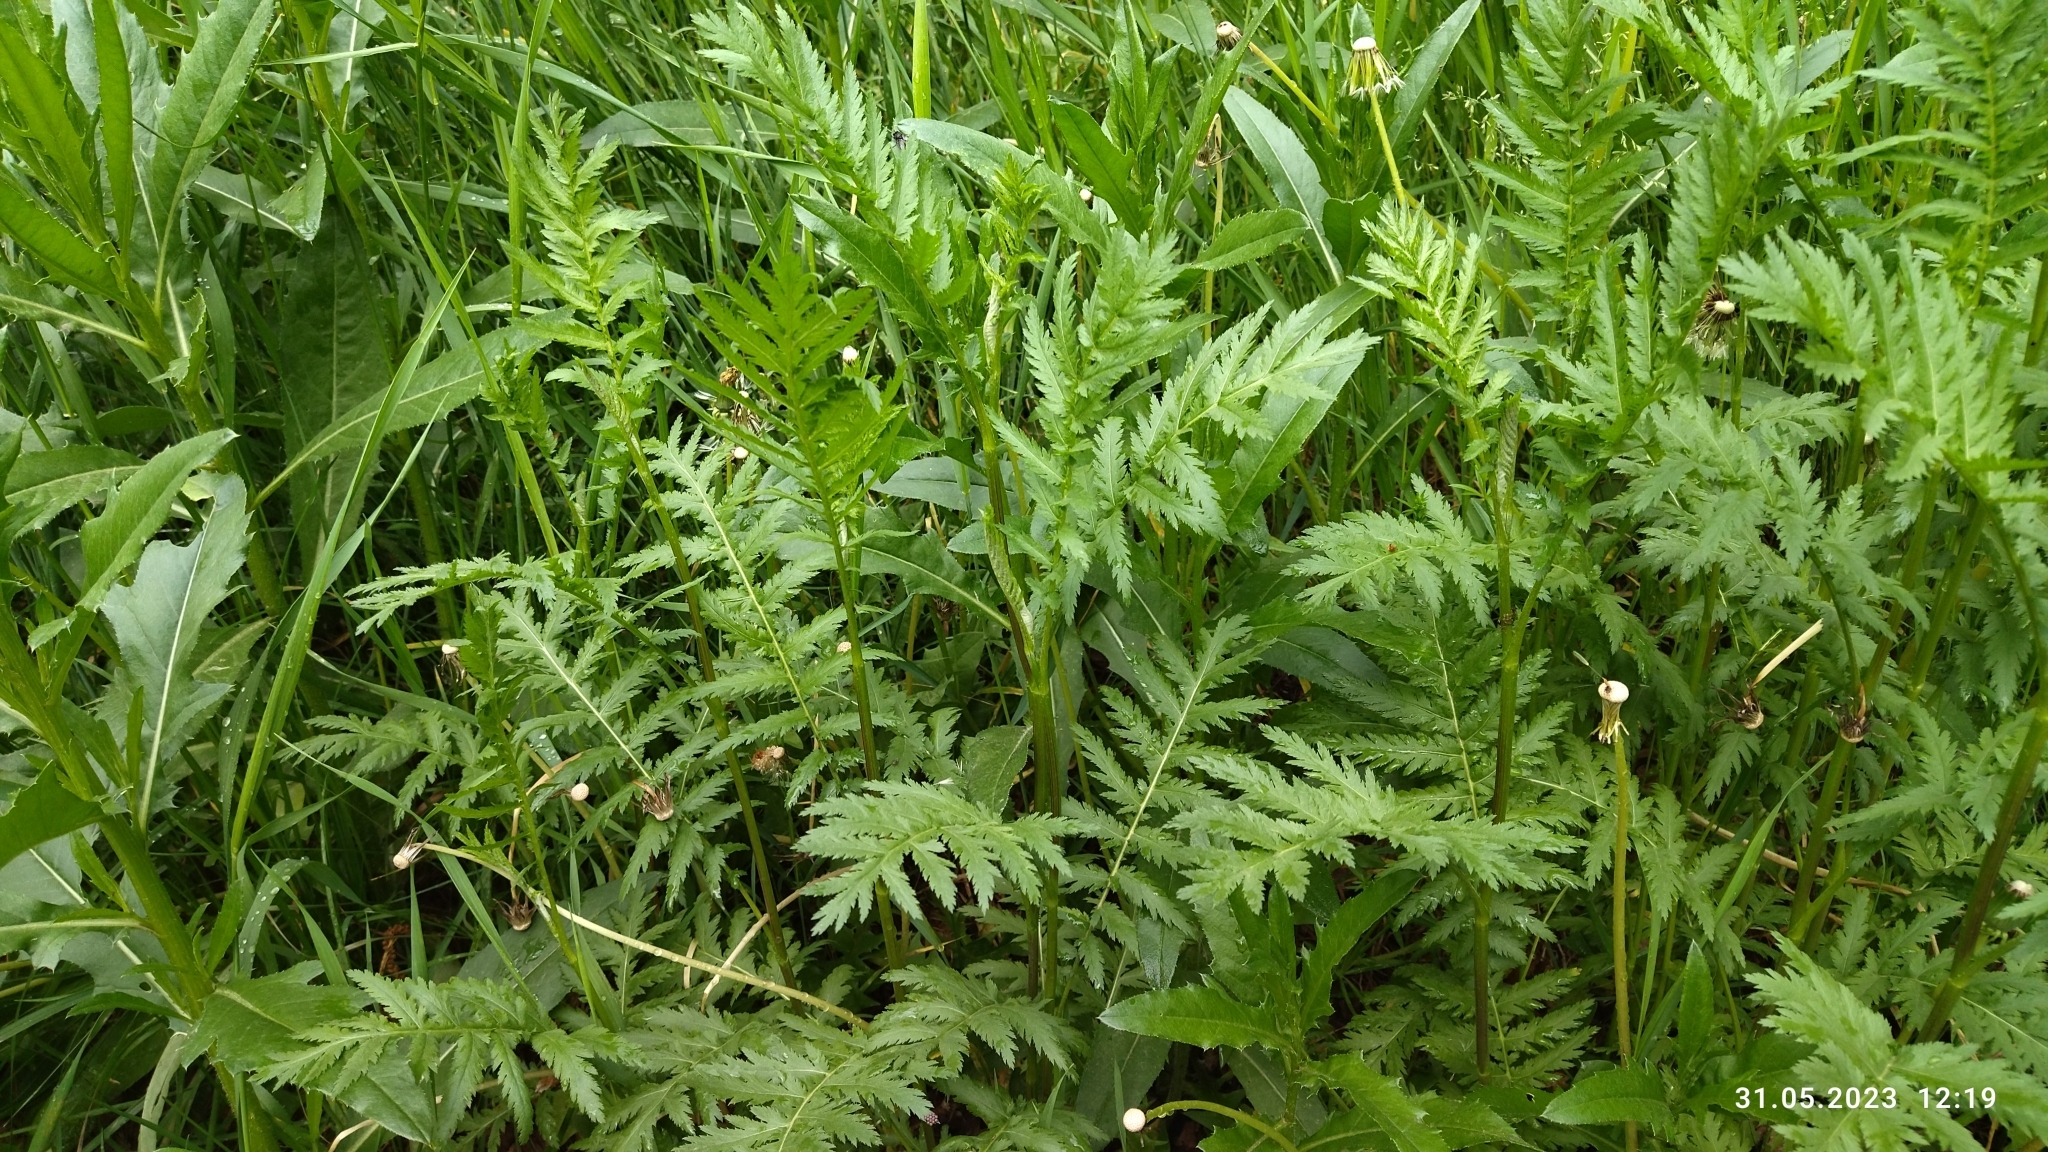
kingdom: Plantae
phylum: Tracheophyta
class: Magnoliopsida
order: Asterales
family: Asteraceae
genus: Tanacetum
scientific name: Tanacetum vulgare
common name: Common tansy
